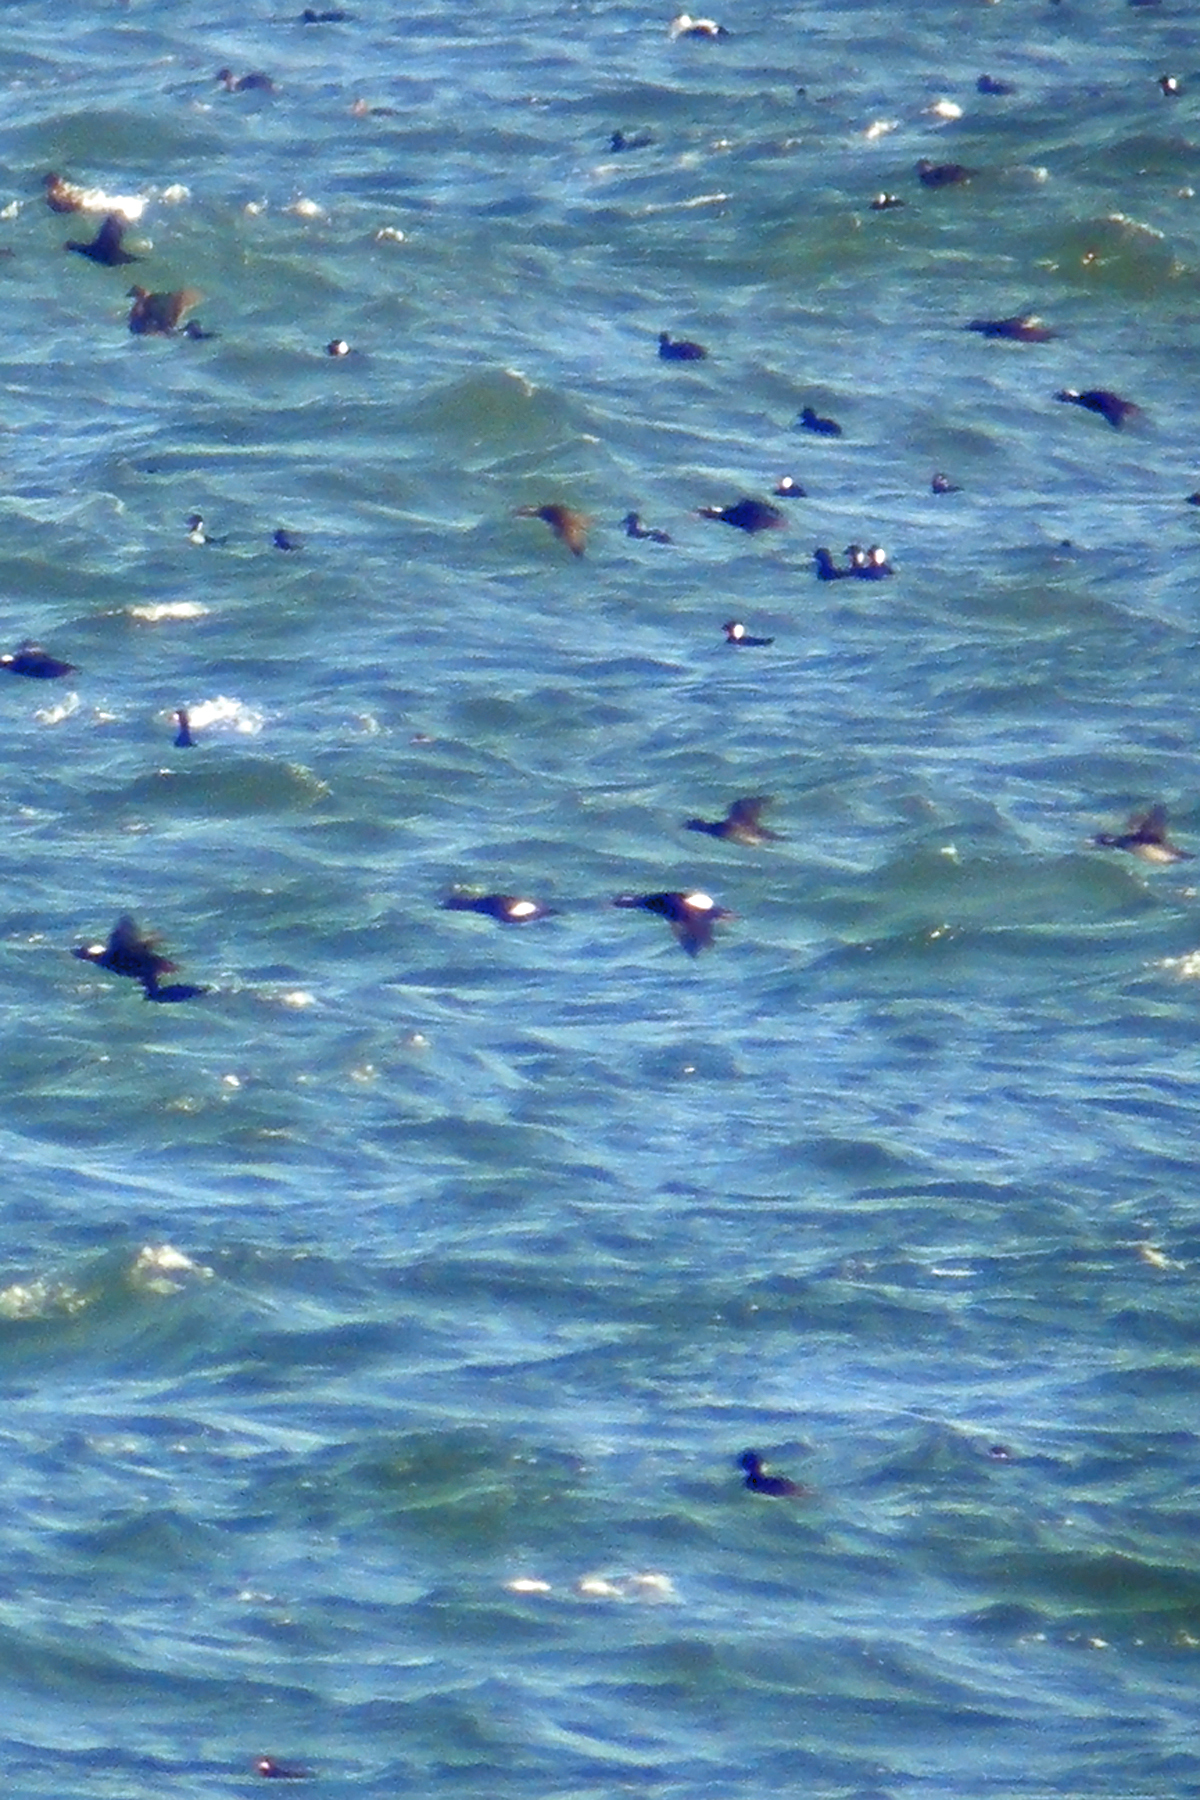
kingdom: Animalia
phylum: Chordata
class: Aves
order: Anseriformes
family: Anatidae
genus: Melanitta
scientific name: Melanitta deglandi
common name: White-winged scoter
